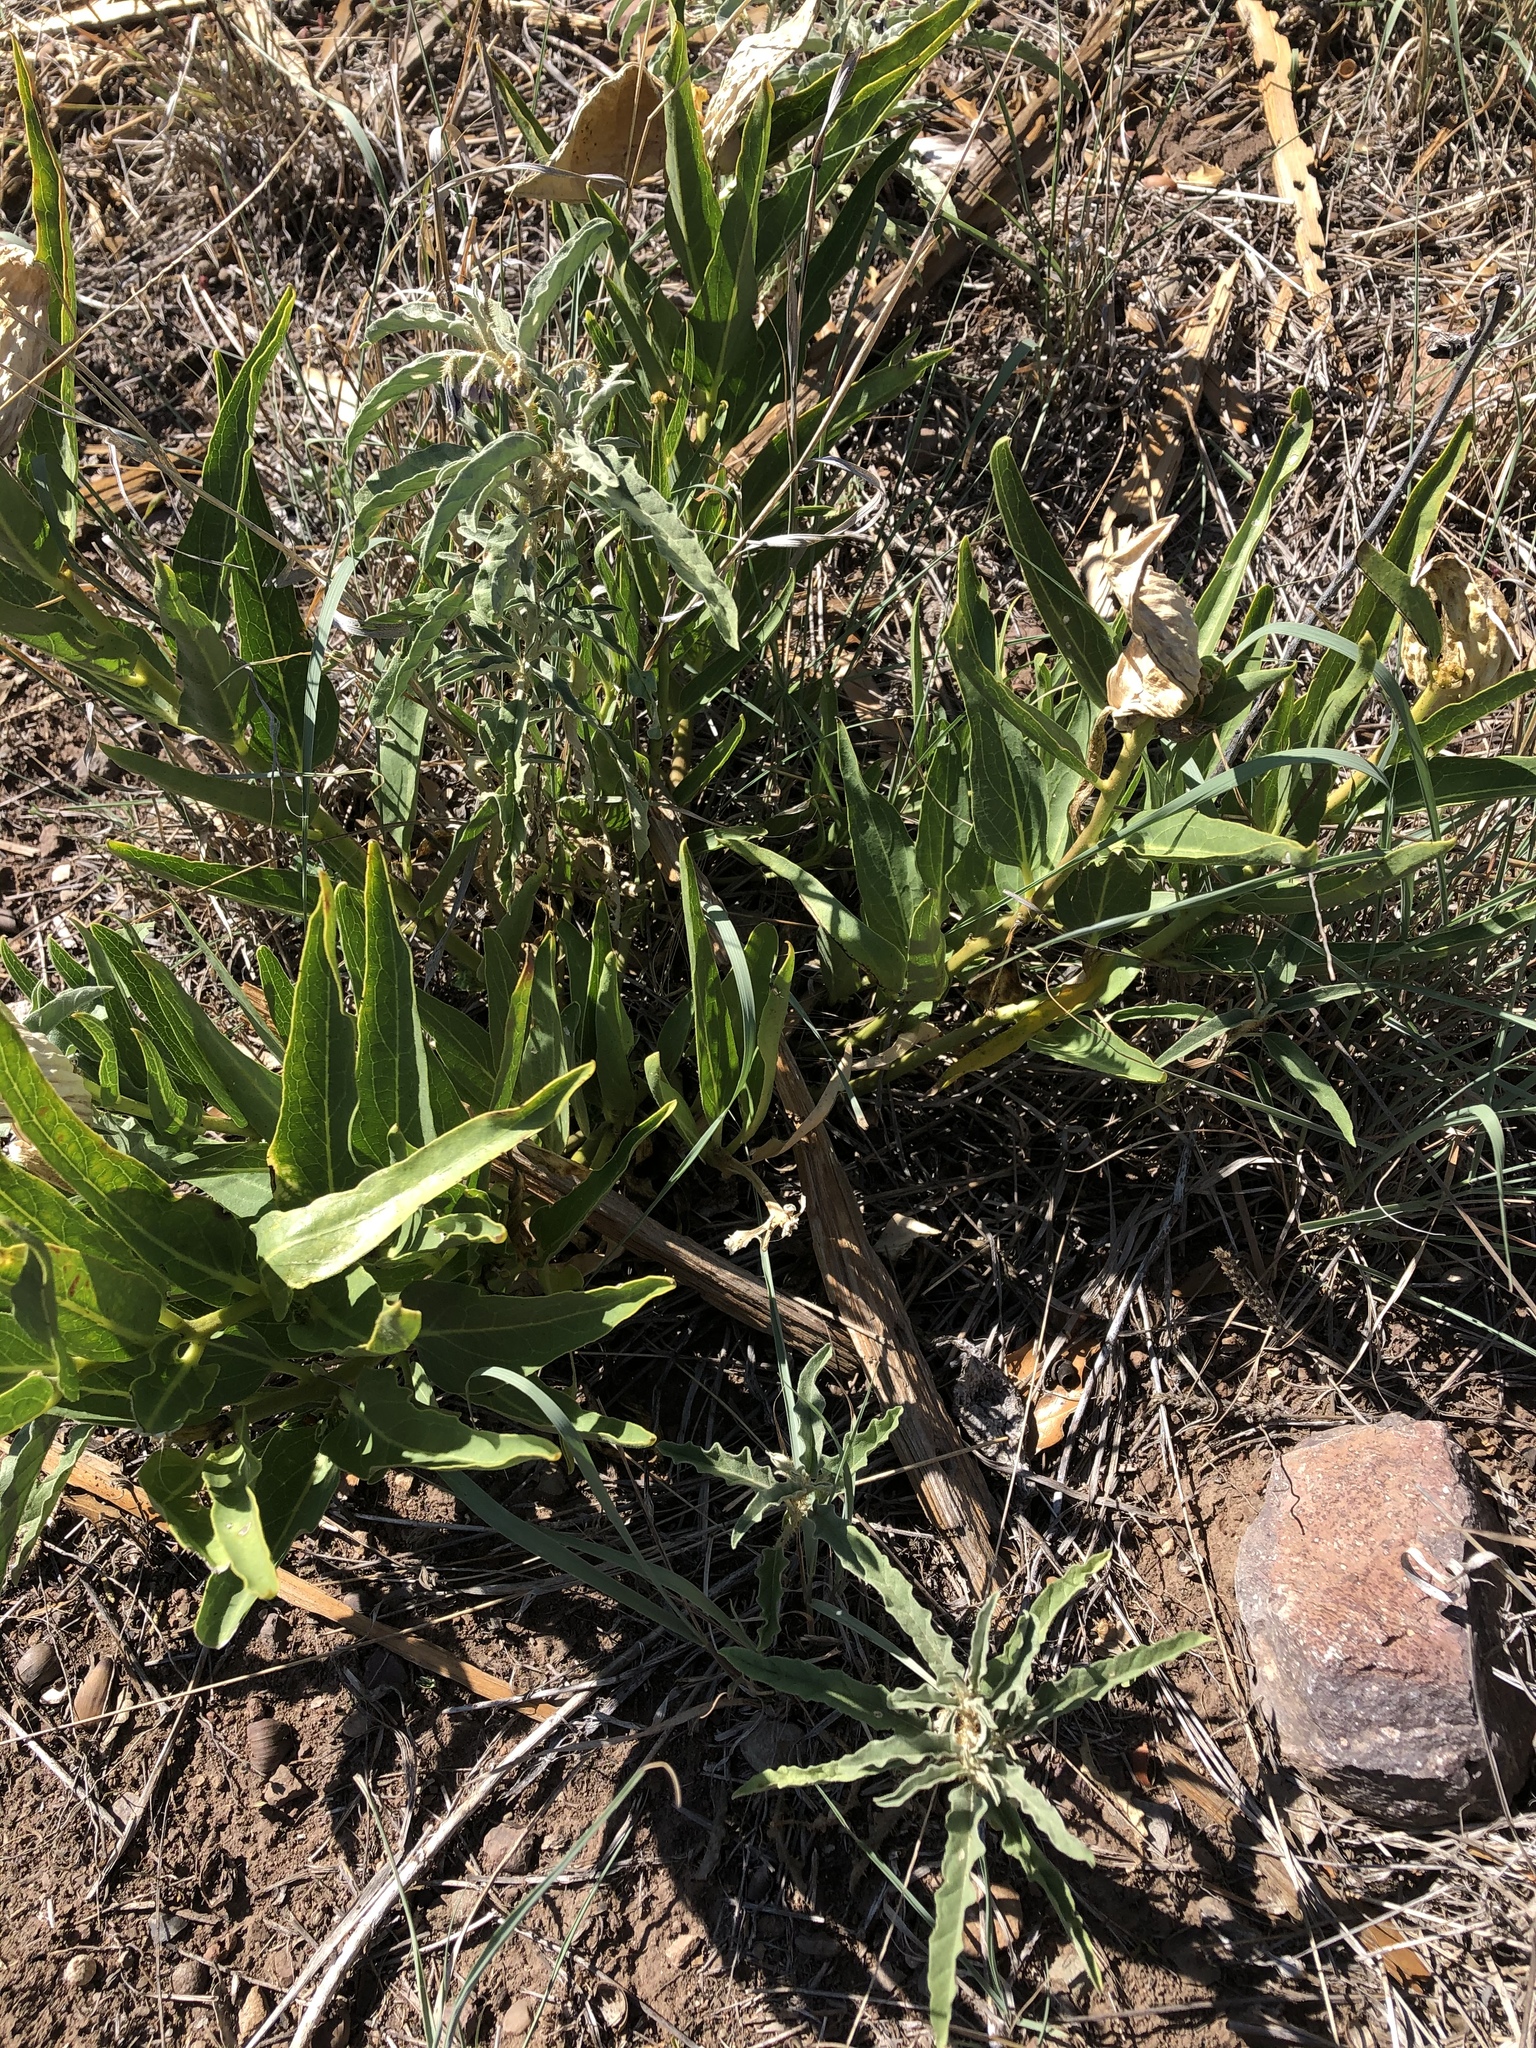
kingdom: Plantae
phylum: Tracheophyta
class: Magnoliopsida
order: Gentianales
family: Apocynaceae
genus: Asclepias
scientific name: Asclepias asperula
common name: Antelope horns
